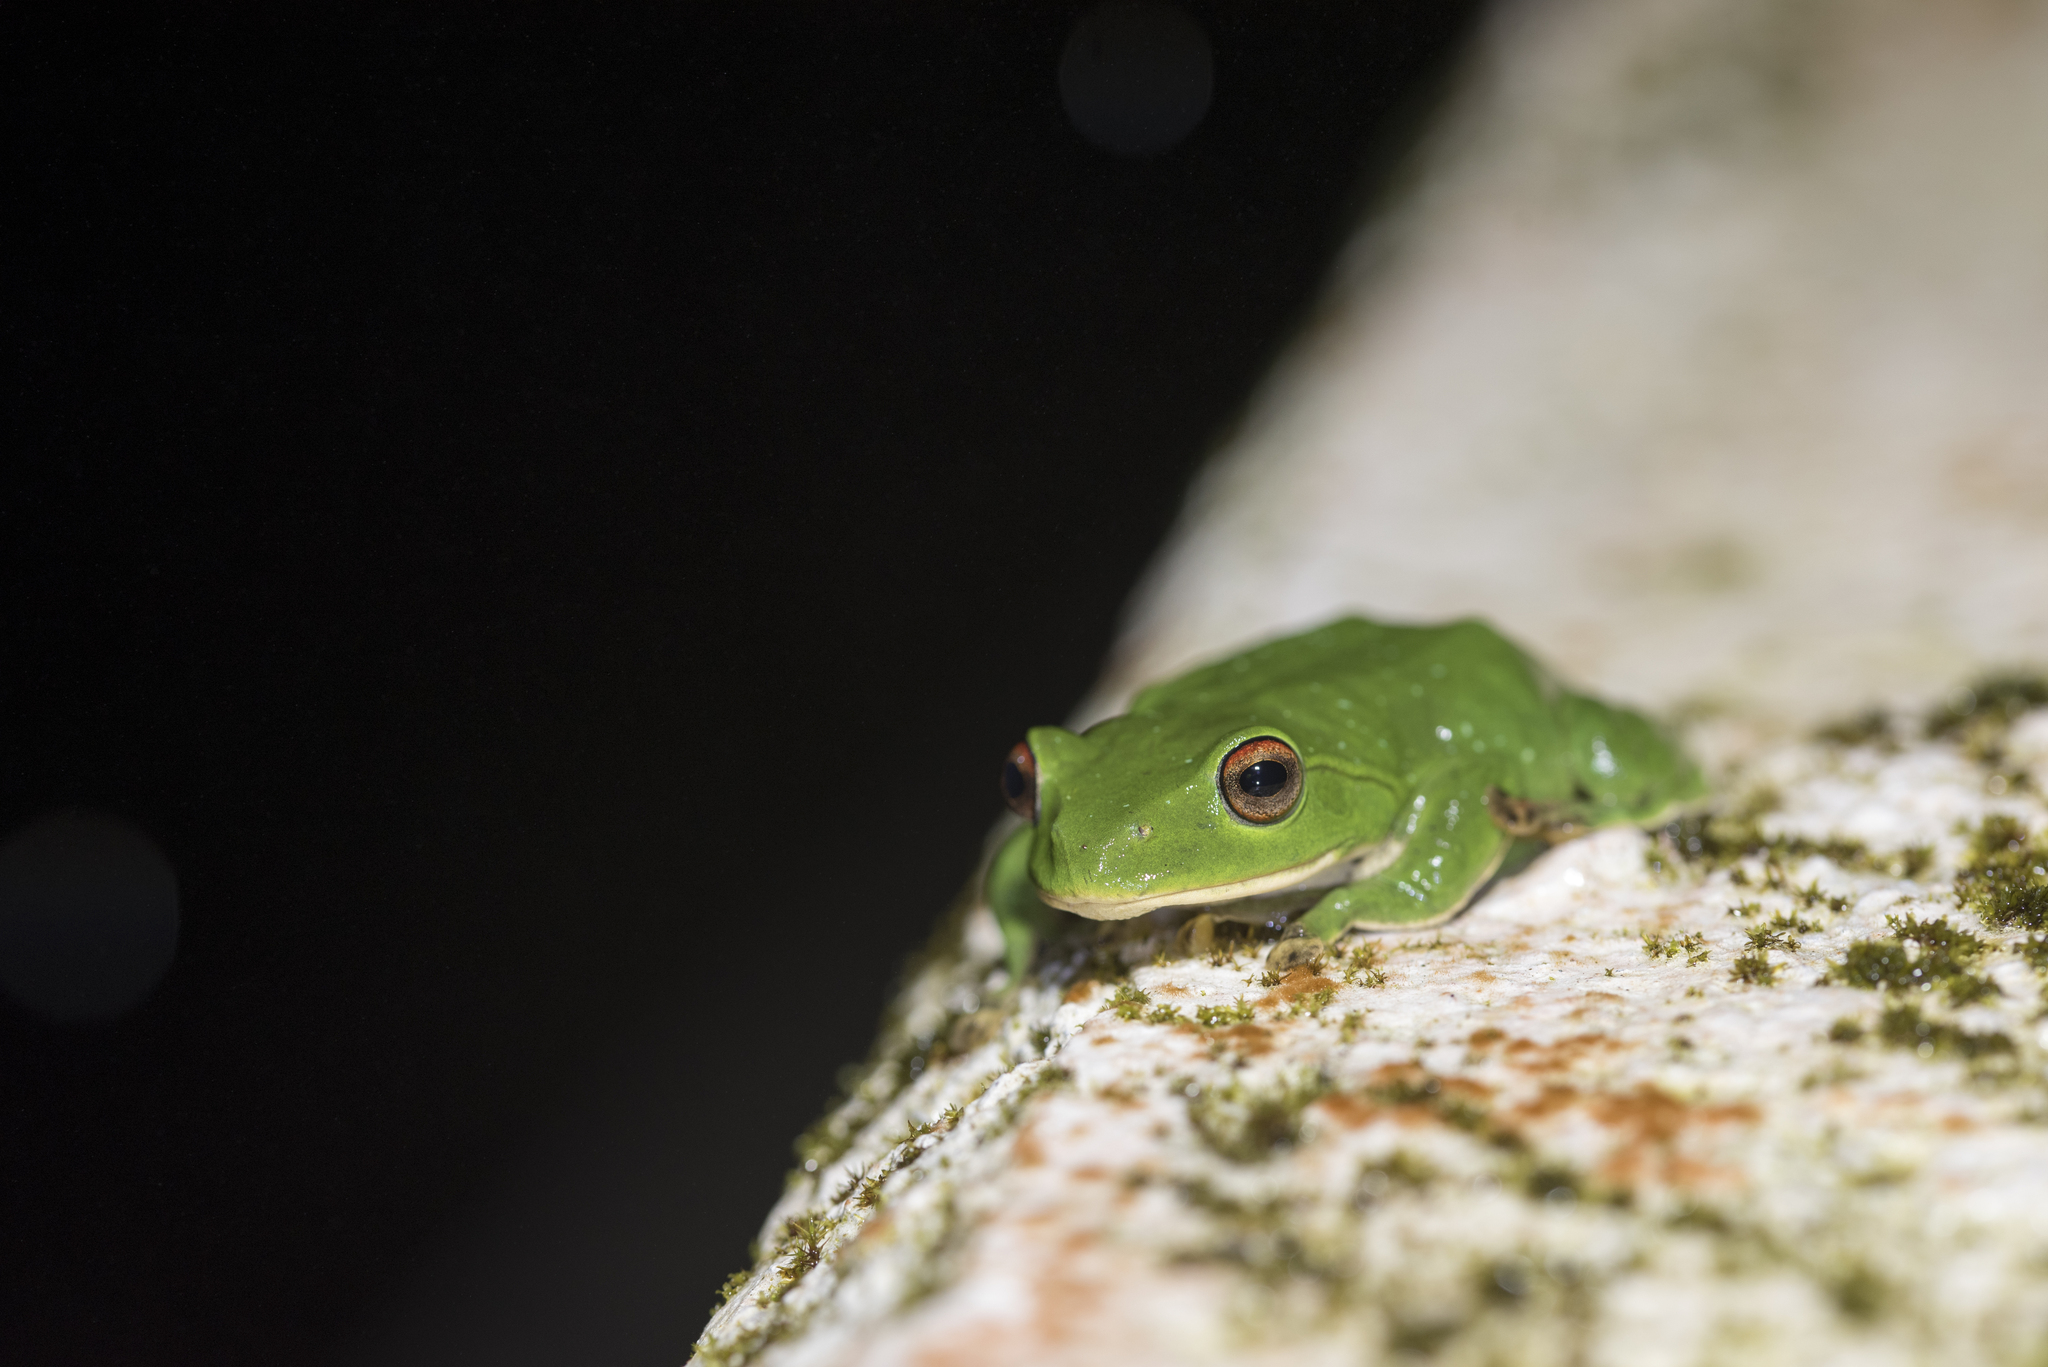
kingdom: Animalia
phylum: Chordata
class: Amphibia
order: Anura
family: Rhacophoridae
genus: Zhangixalus
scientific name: Zhangixalus moltrechti
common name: Moltrecht's treefrog
